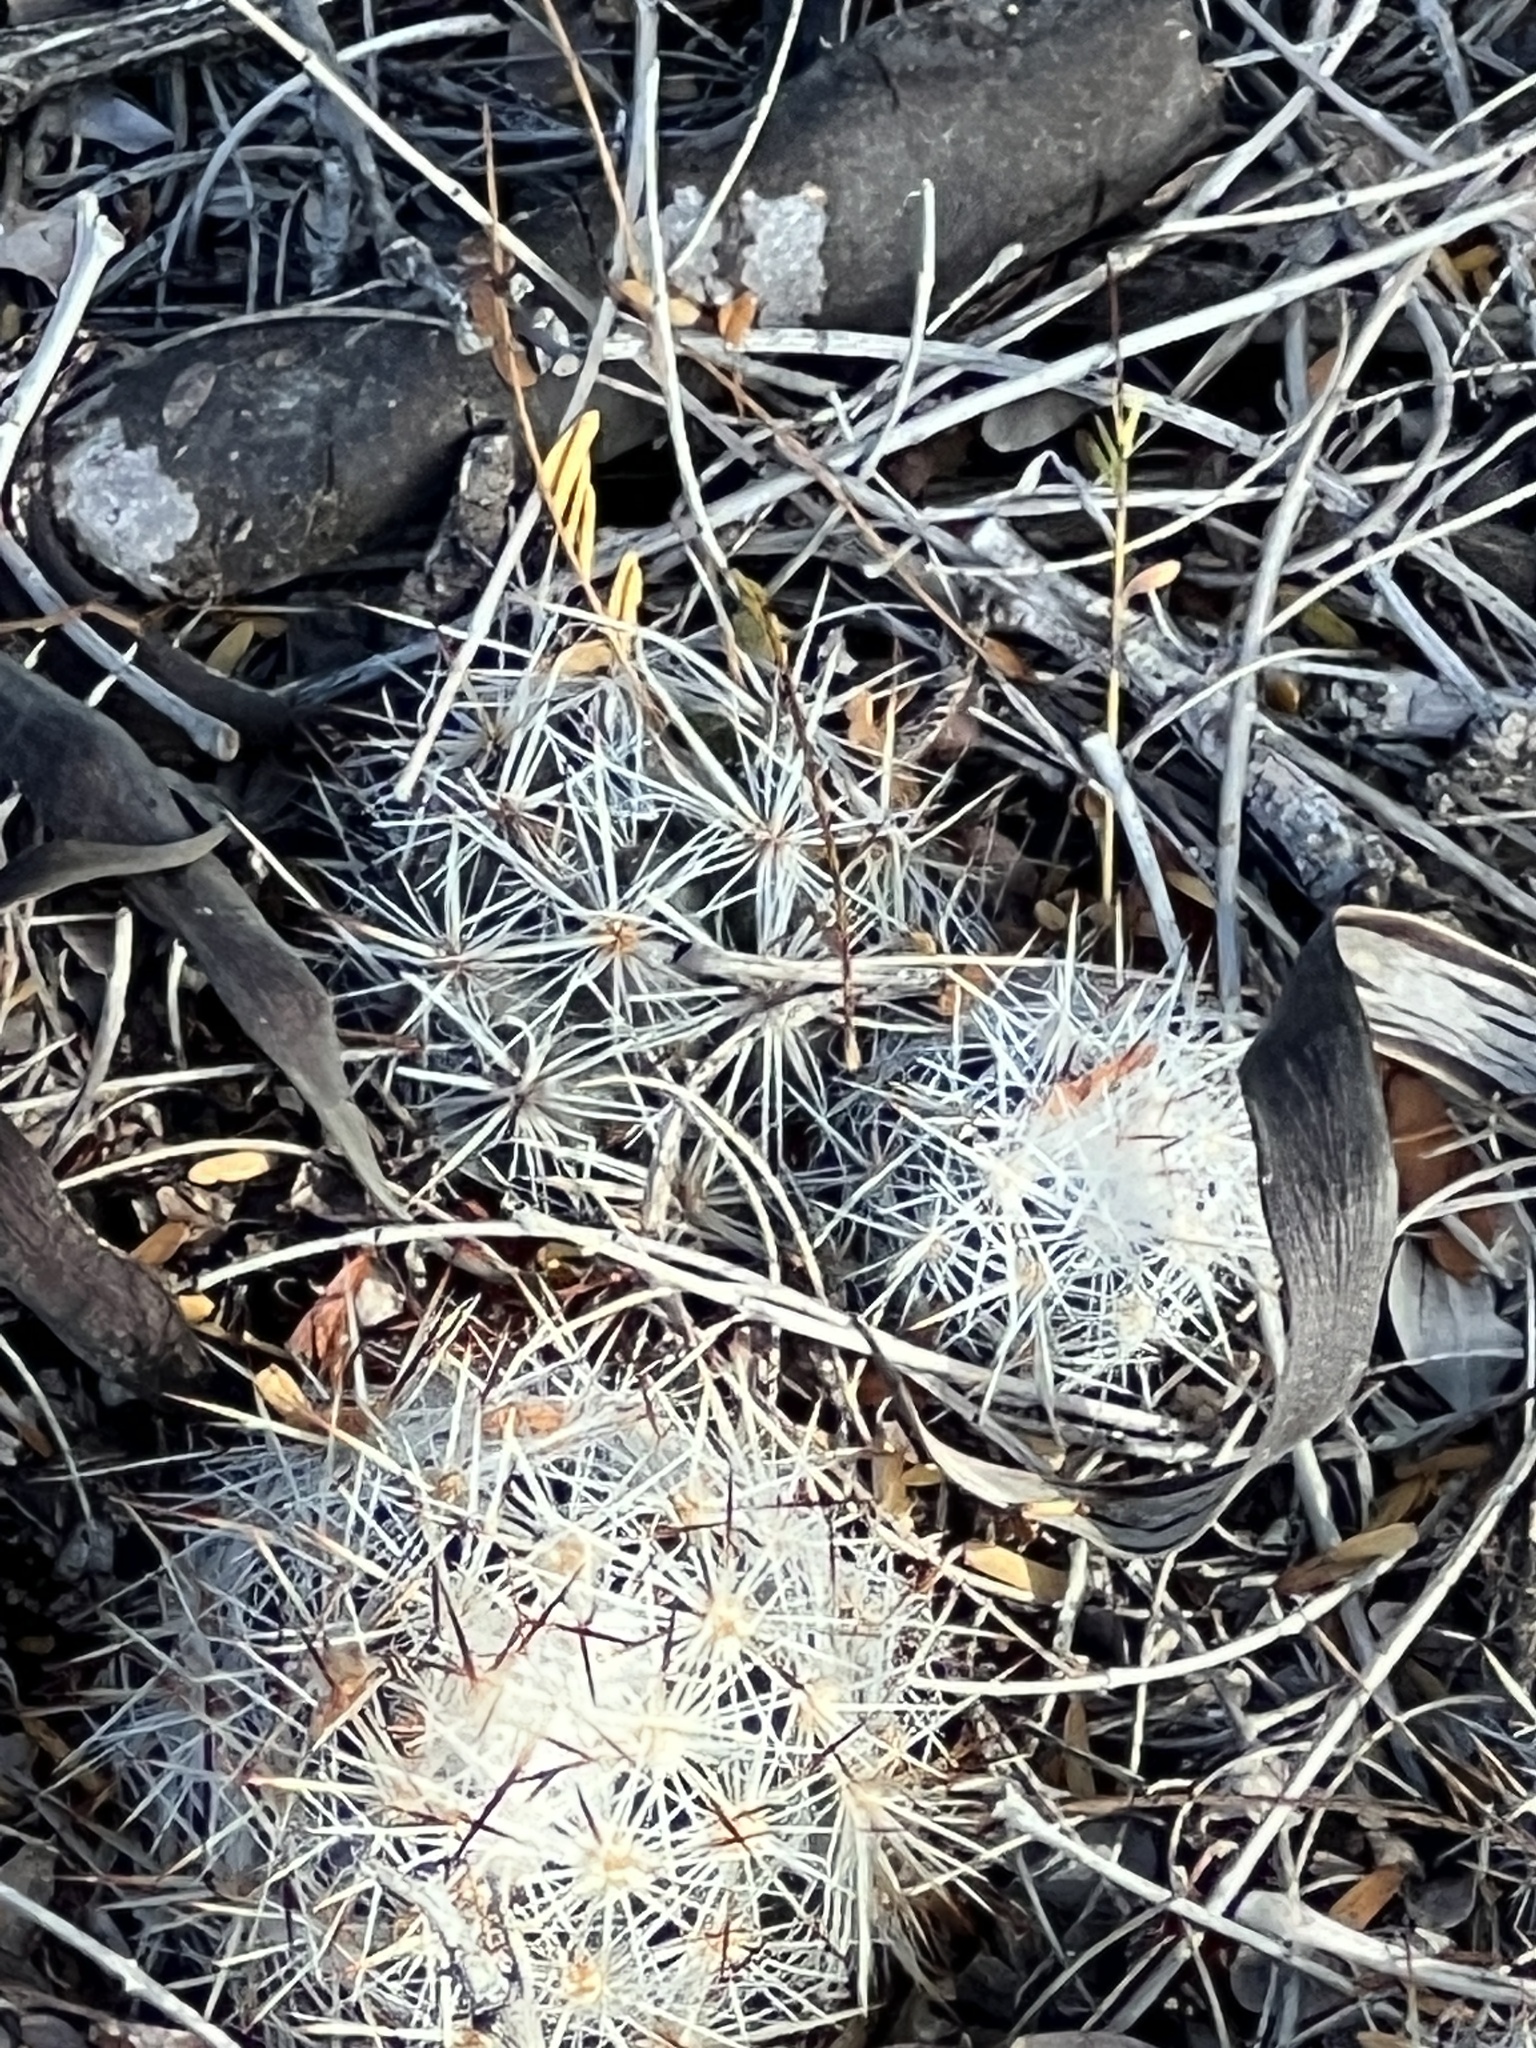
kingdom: Plantae
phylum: Tracheophyta
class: Magnoliopsida
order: Caryophyllales
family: Cactaceae
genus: Pelecyphora
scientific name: Pelecyphora emskoetteriana
